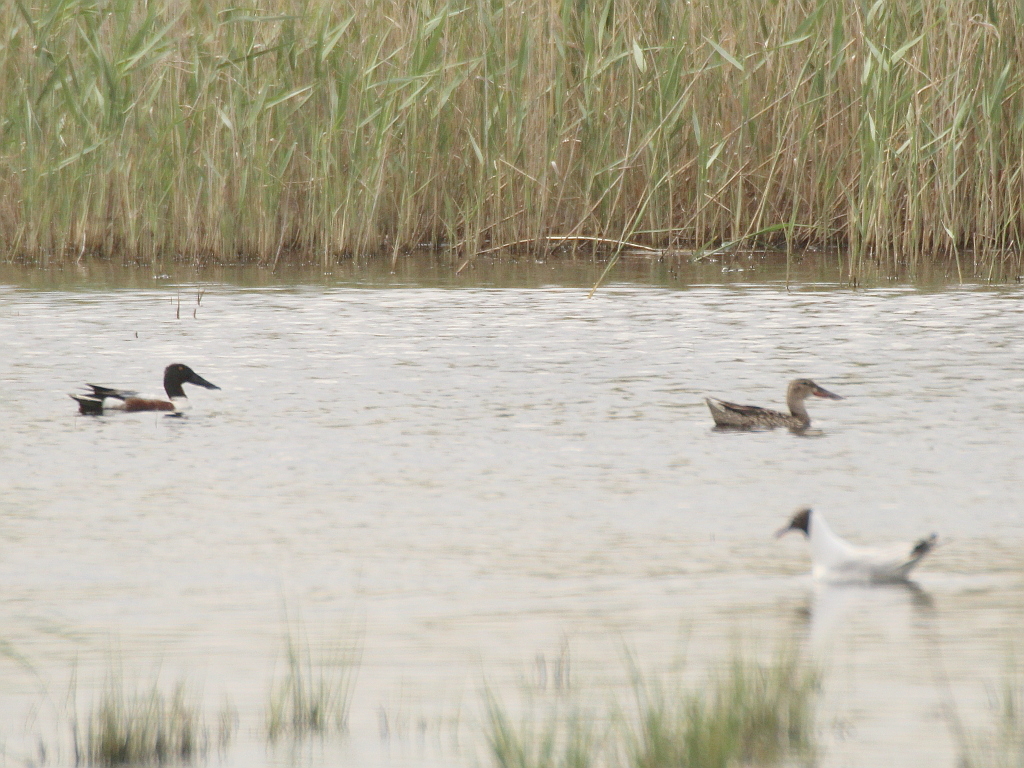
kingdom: Animalia
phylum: Chordata
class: Aves
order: Anseriformes
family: Anatidae
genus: Spatula
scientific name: Spatula clypeata
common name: Northern shoveler
